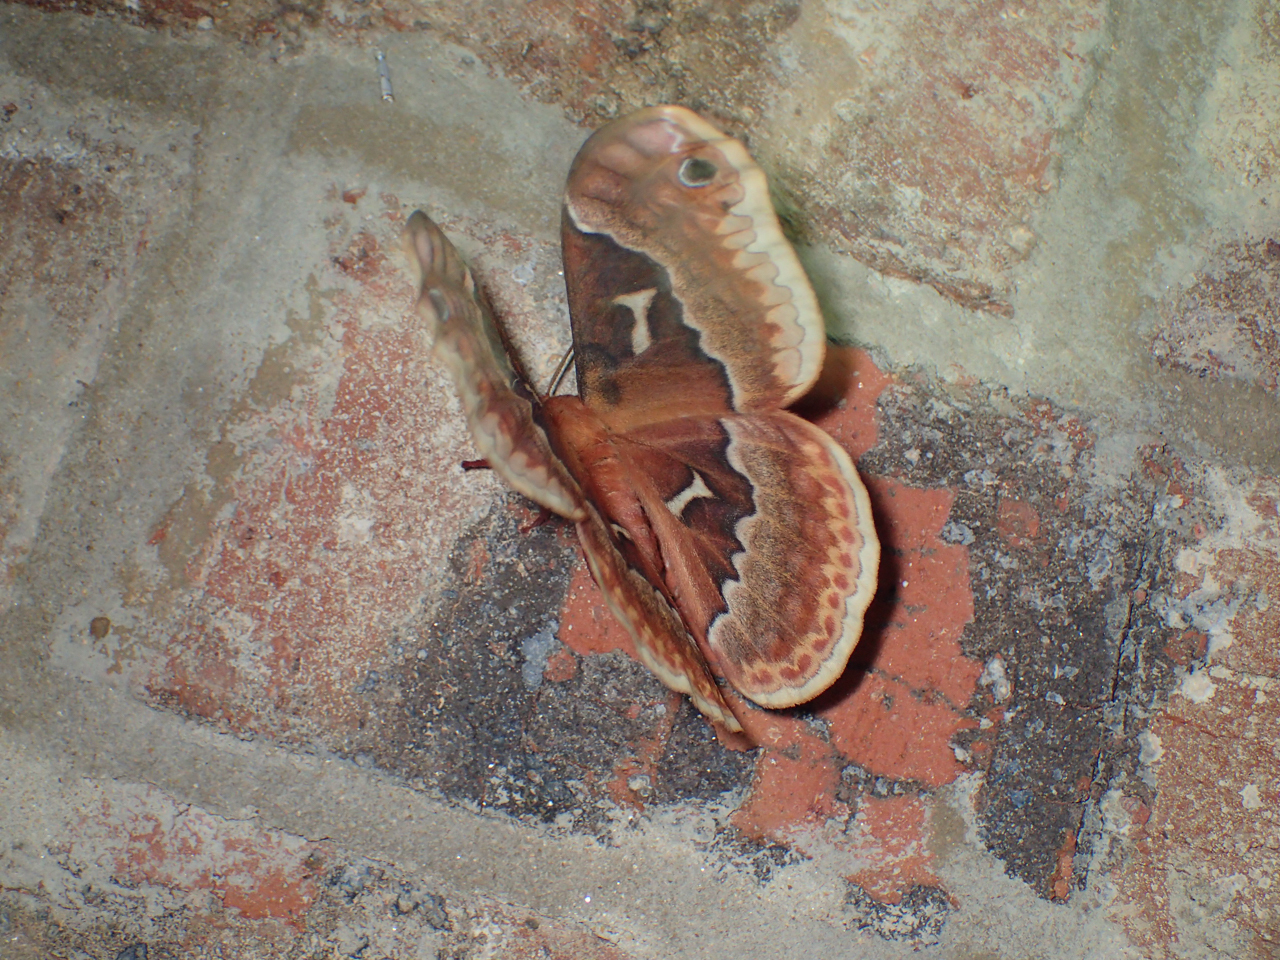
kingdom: Animalia
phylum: Arthropoda
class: Insecta
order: Lepidoptera
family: Saturniidae
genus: Callosamia
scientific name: Callosamia angulifera
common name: Tulip tree silkmoth
